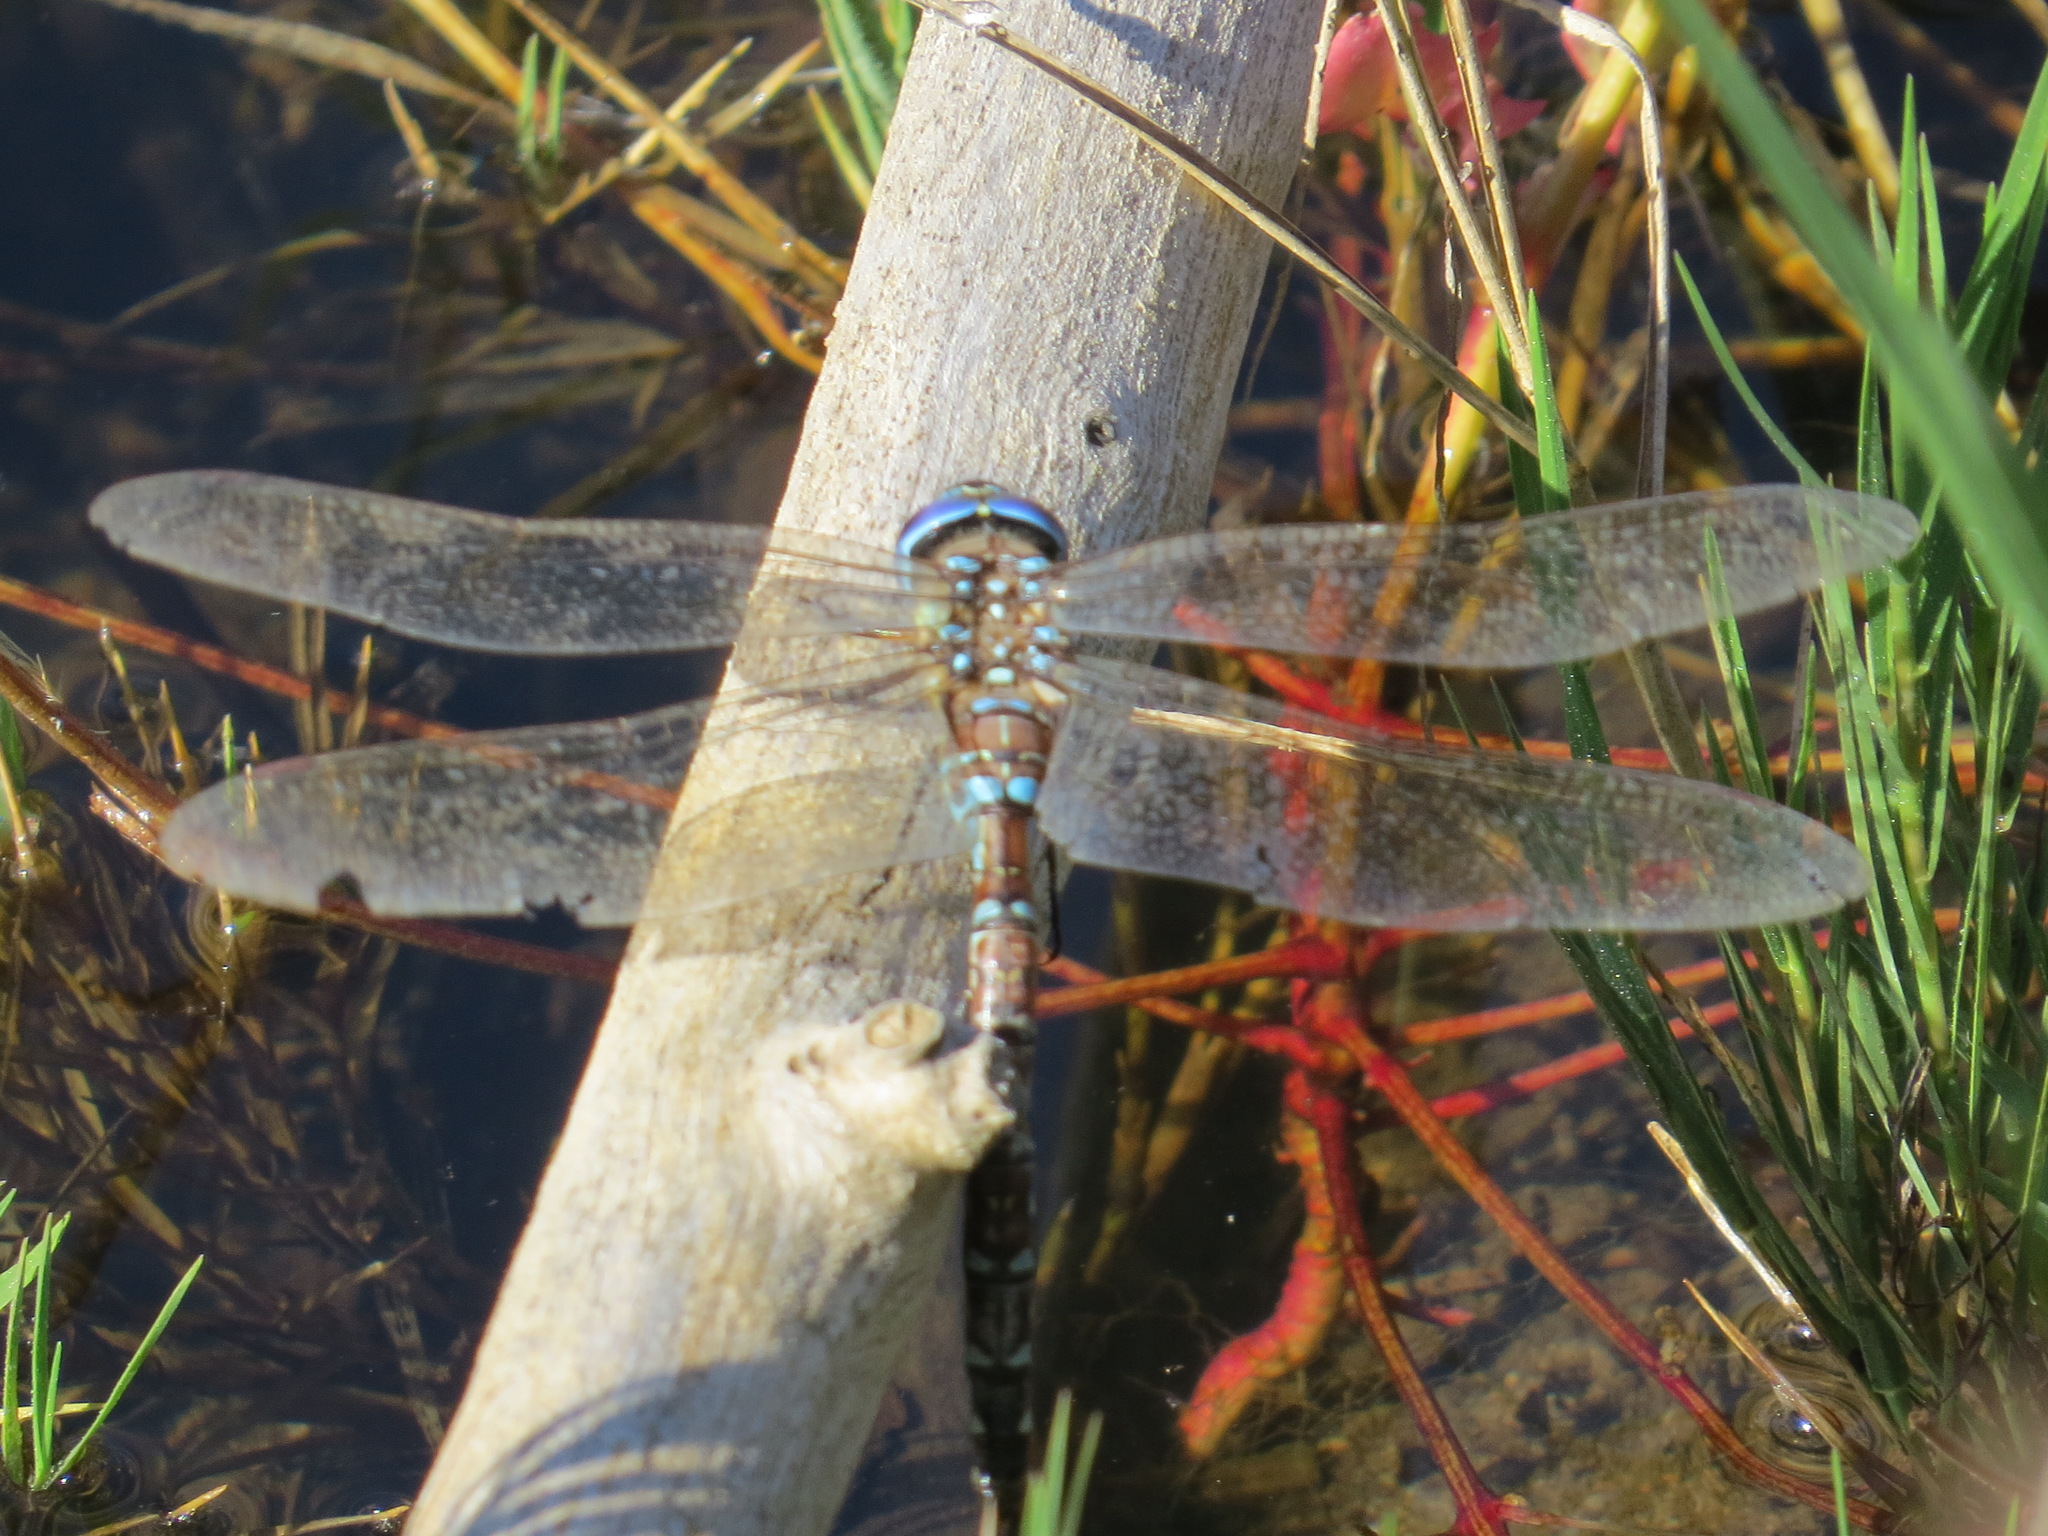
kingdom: Animalia
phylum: Arthropoda
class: Insecta
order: Odonata
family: Aeshnidae
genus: Rhionaeschna
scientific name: Rhionaeschna multicolor
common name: Blue-eyed darner
